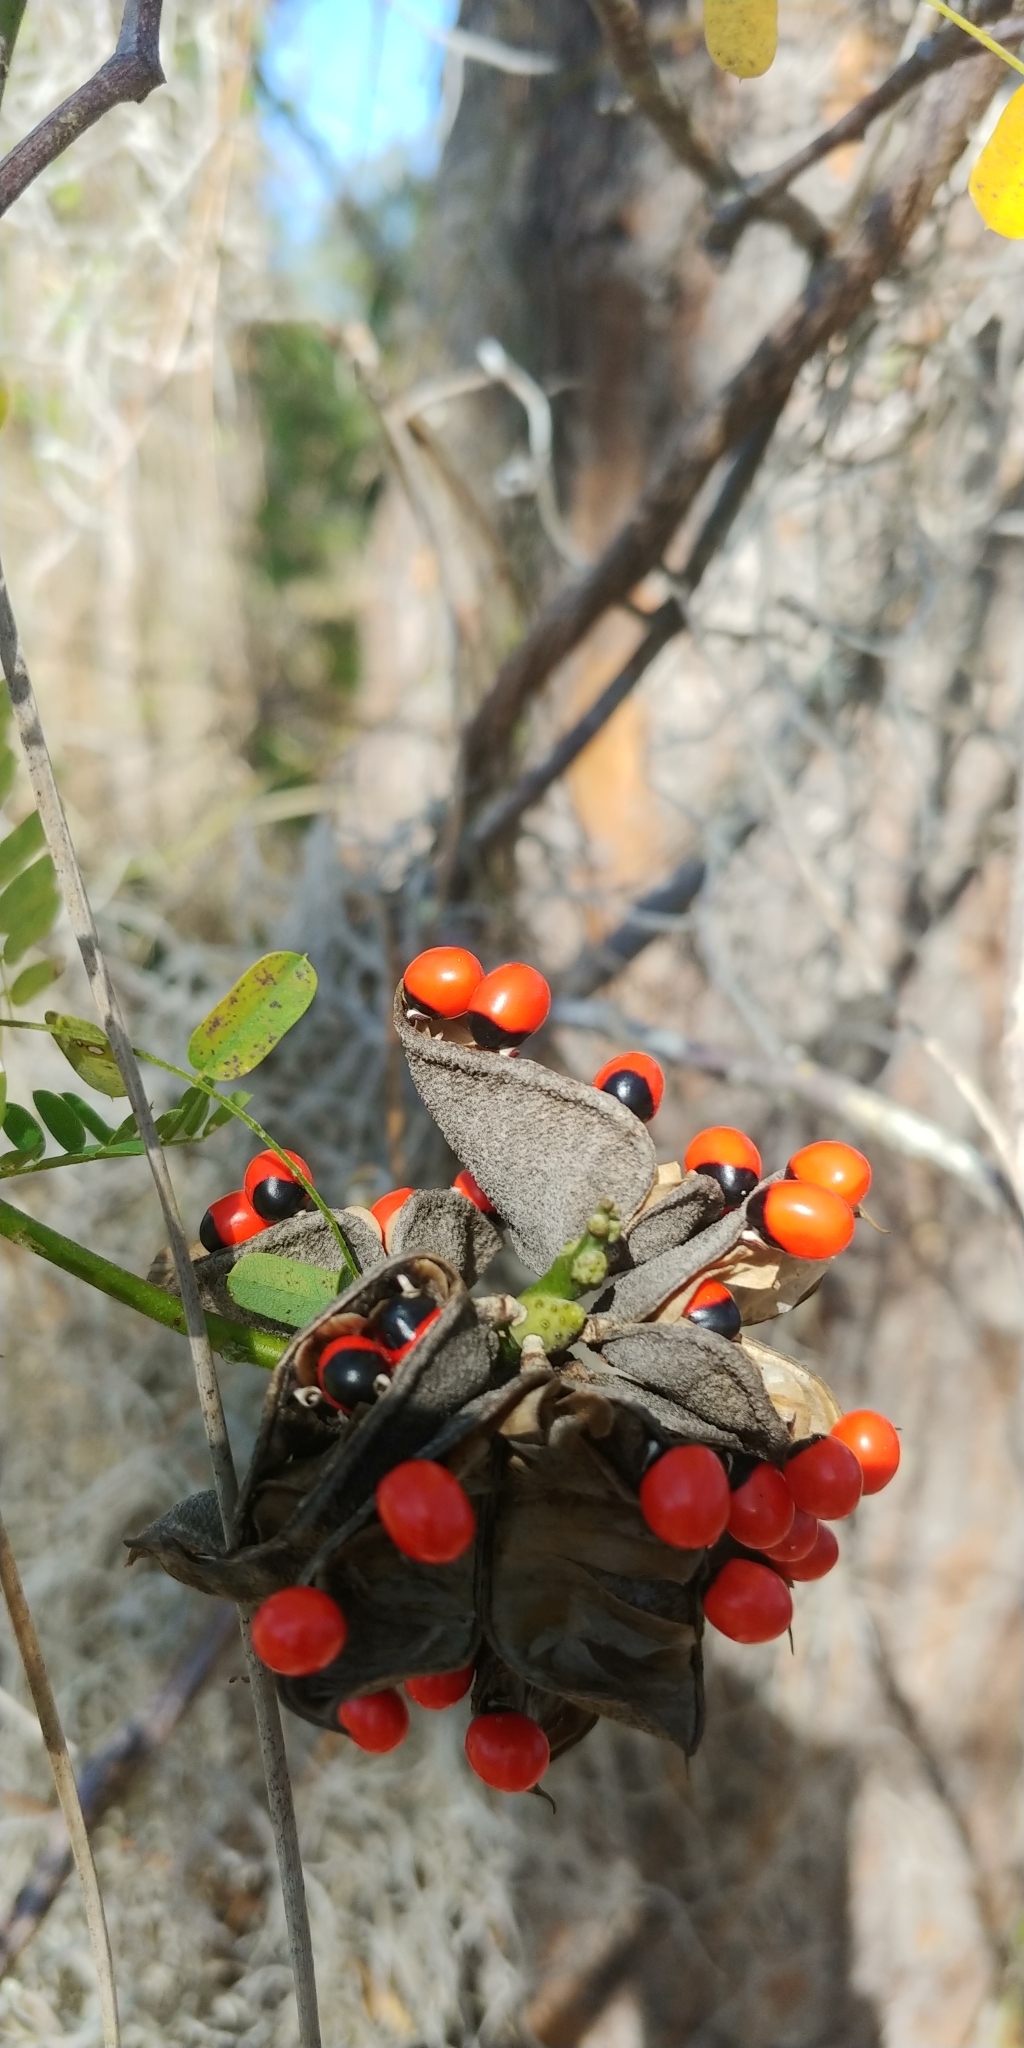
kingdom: Plantae
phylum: Tracheophyta
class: Magnoliopsida
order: Fabales
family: Fabaceae
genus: Abrus
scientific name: Abrus precatorius
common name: Rosarypea
